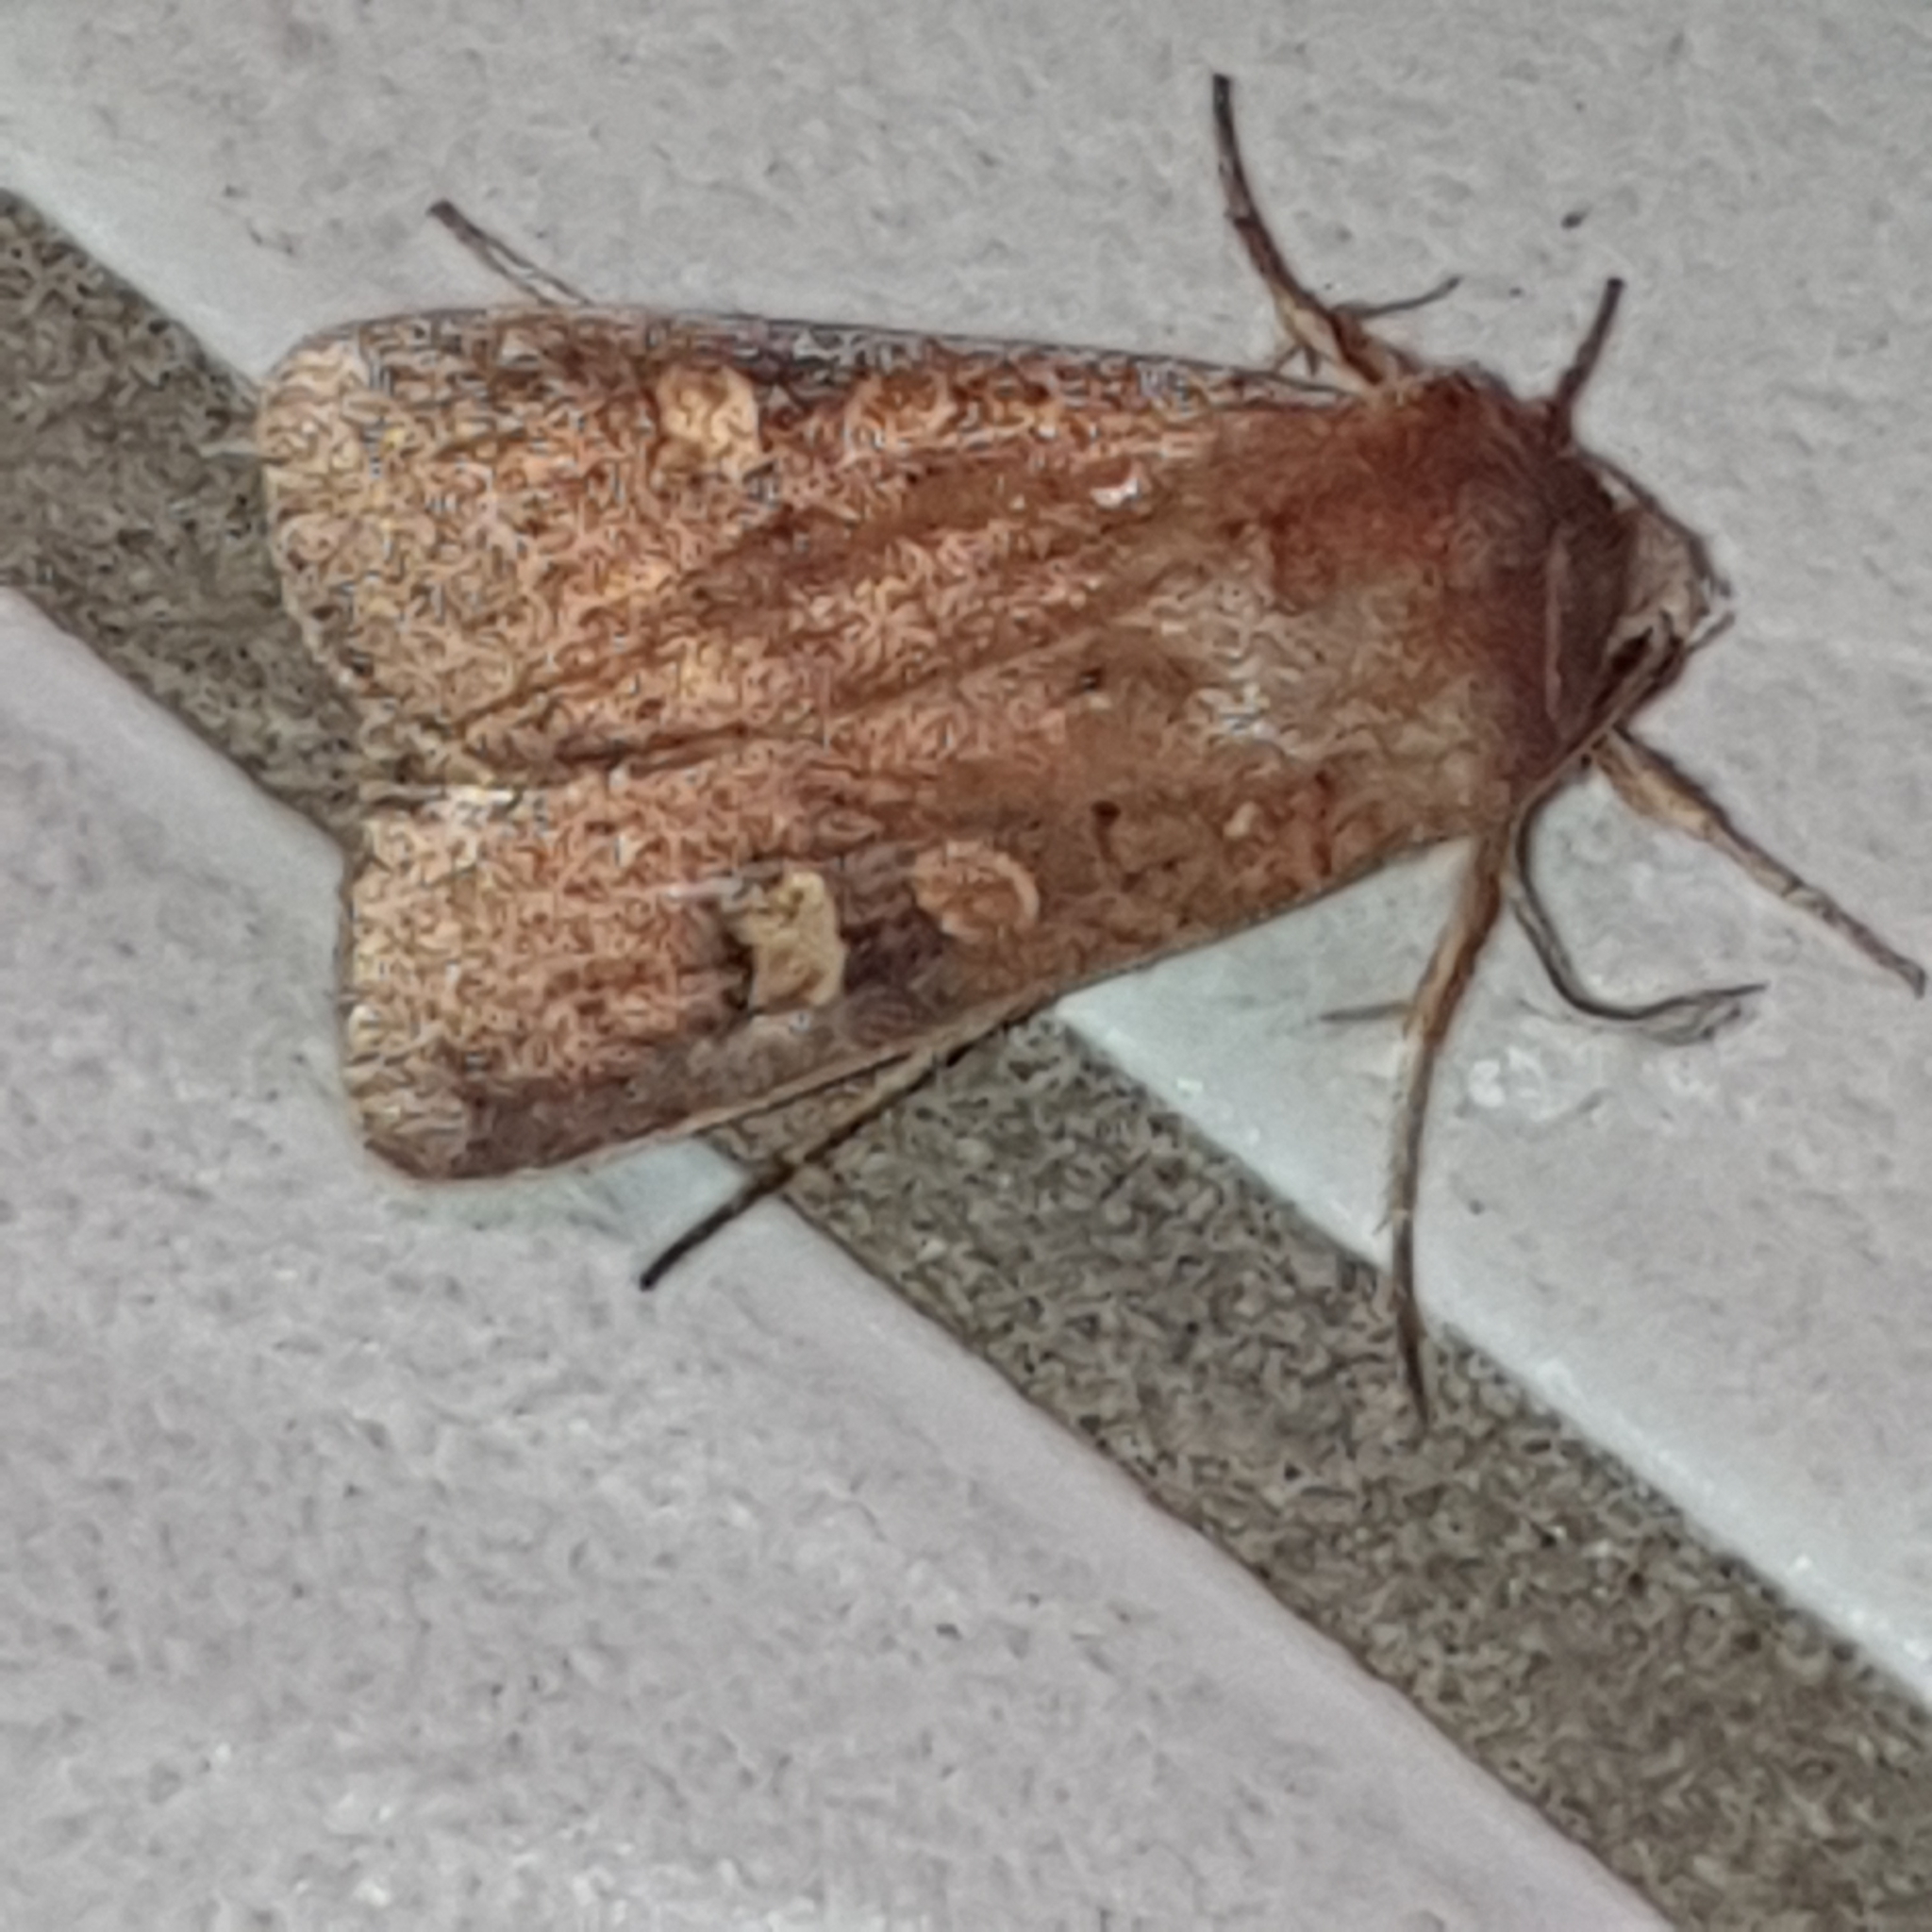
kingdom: Animalia
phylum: Arthropoda
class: Insecta
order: Lepidoptera
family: Noctuidae
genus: Xestia
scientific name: Xestia xanthographa
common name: Square-spot rustic
